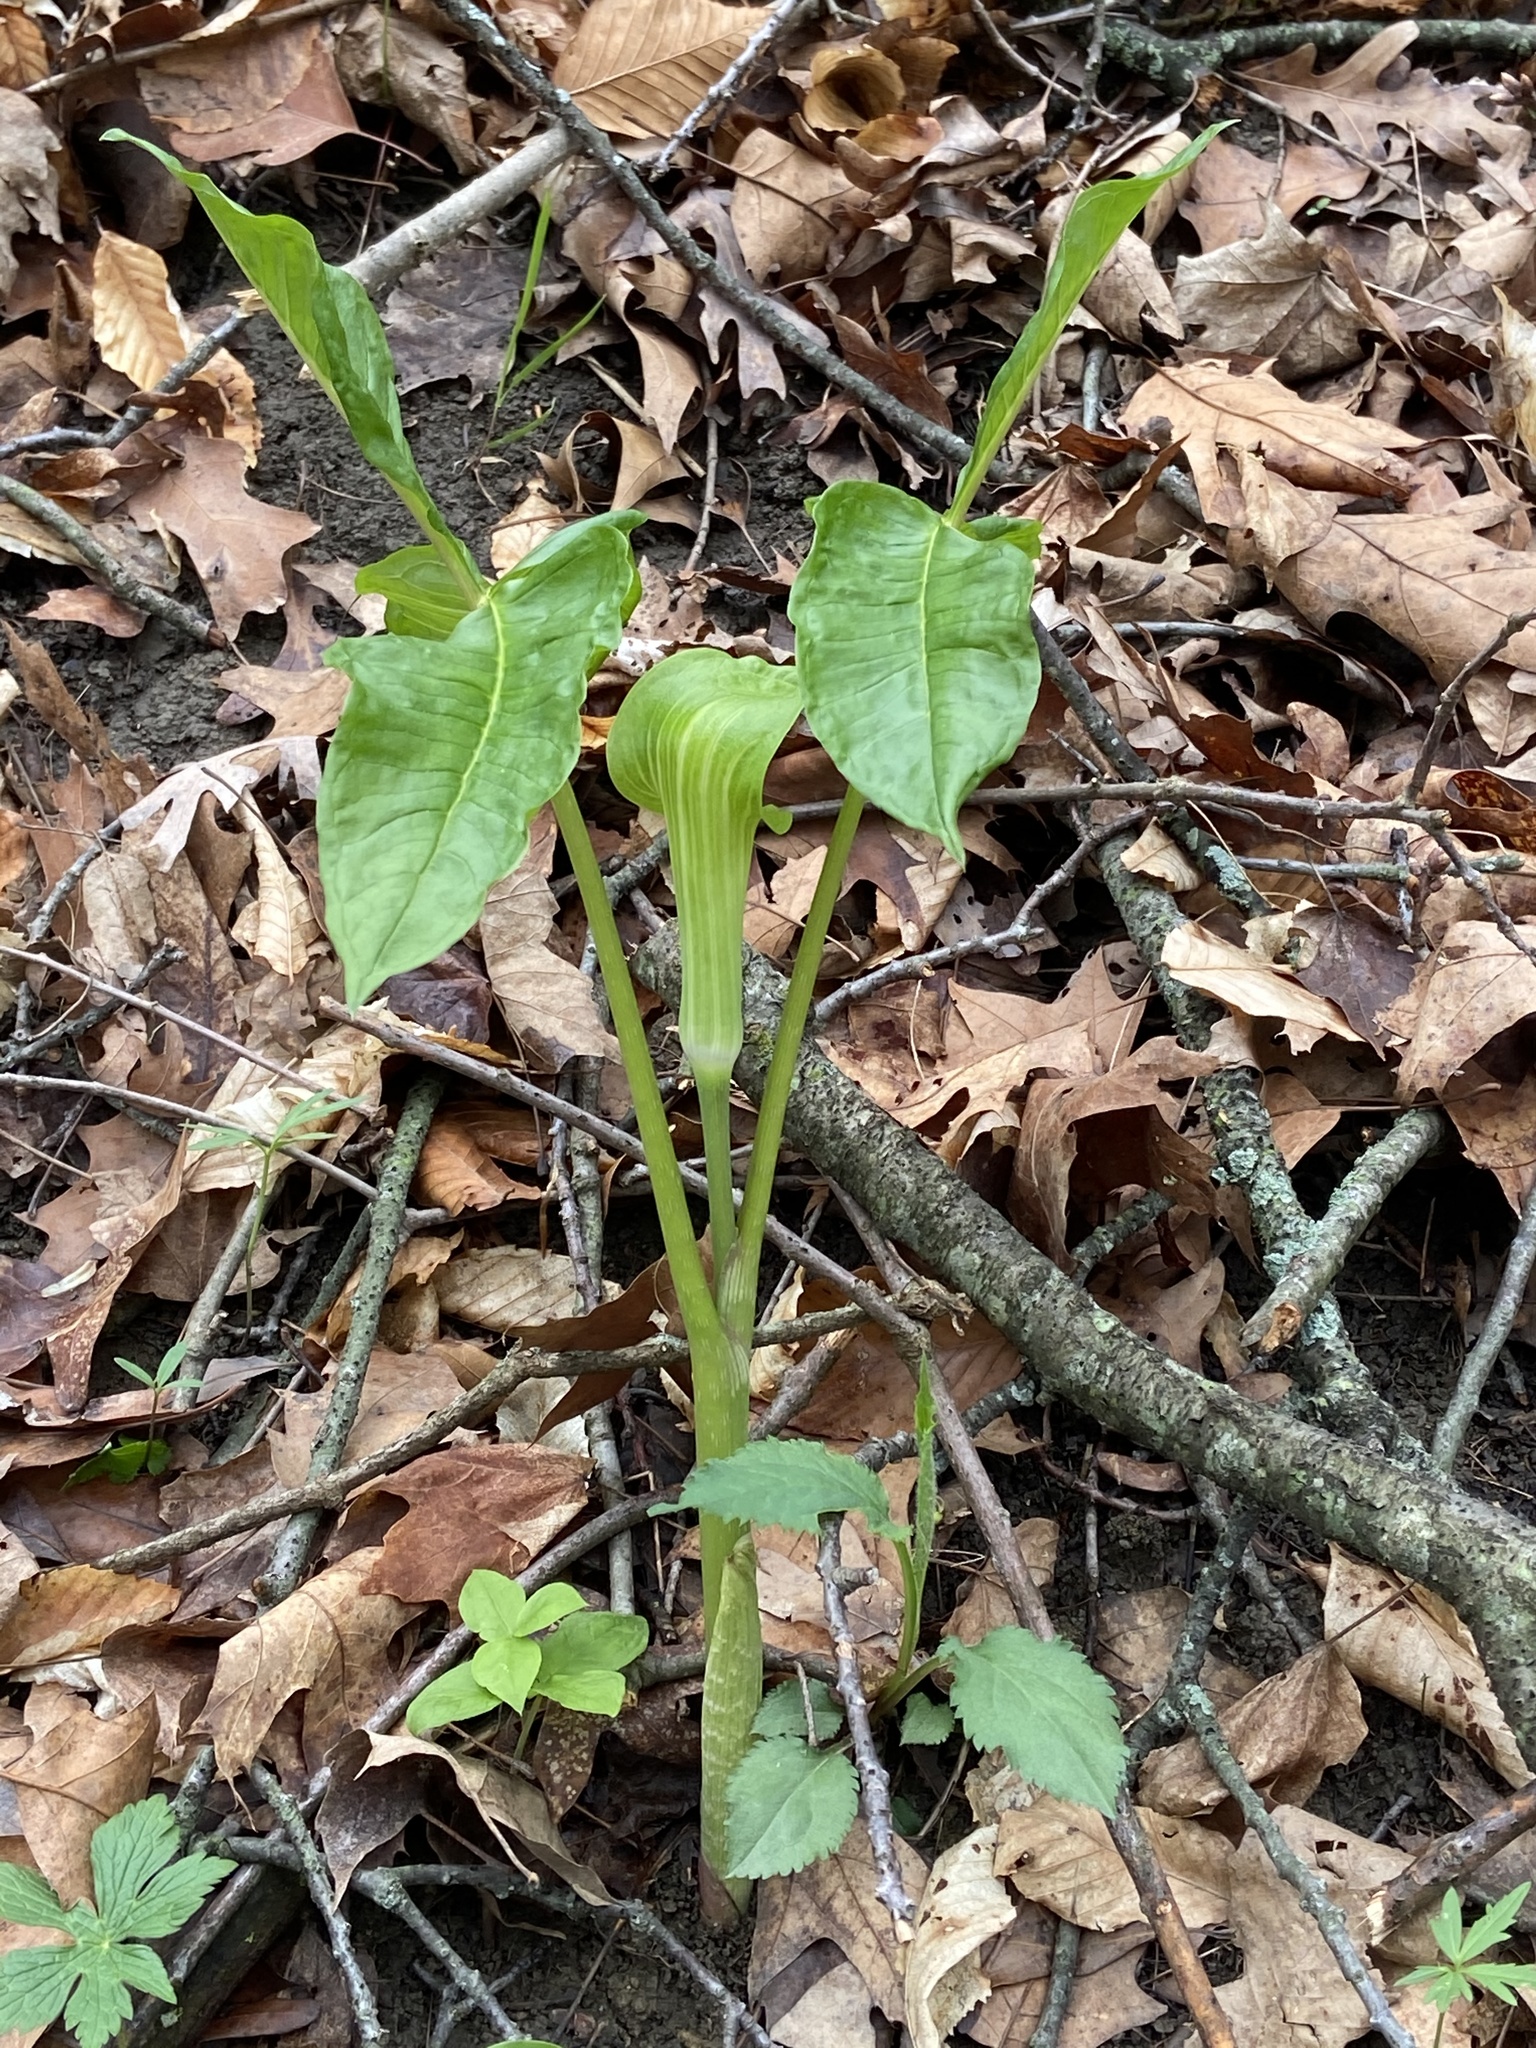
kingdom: Plantae
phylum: Tracheophyta
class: Liliopsida
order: Alismatales
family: Araceae
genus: Arisaema
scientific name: Arisaema triphyllum
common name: Jack-in-the-pulpit
